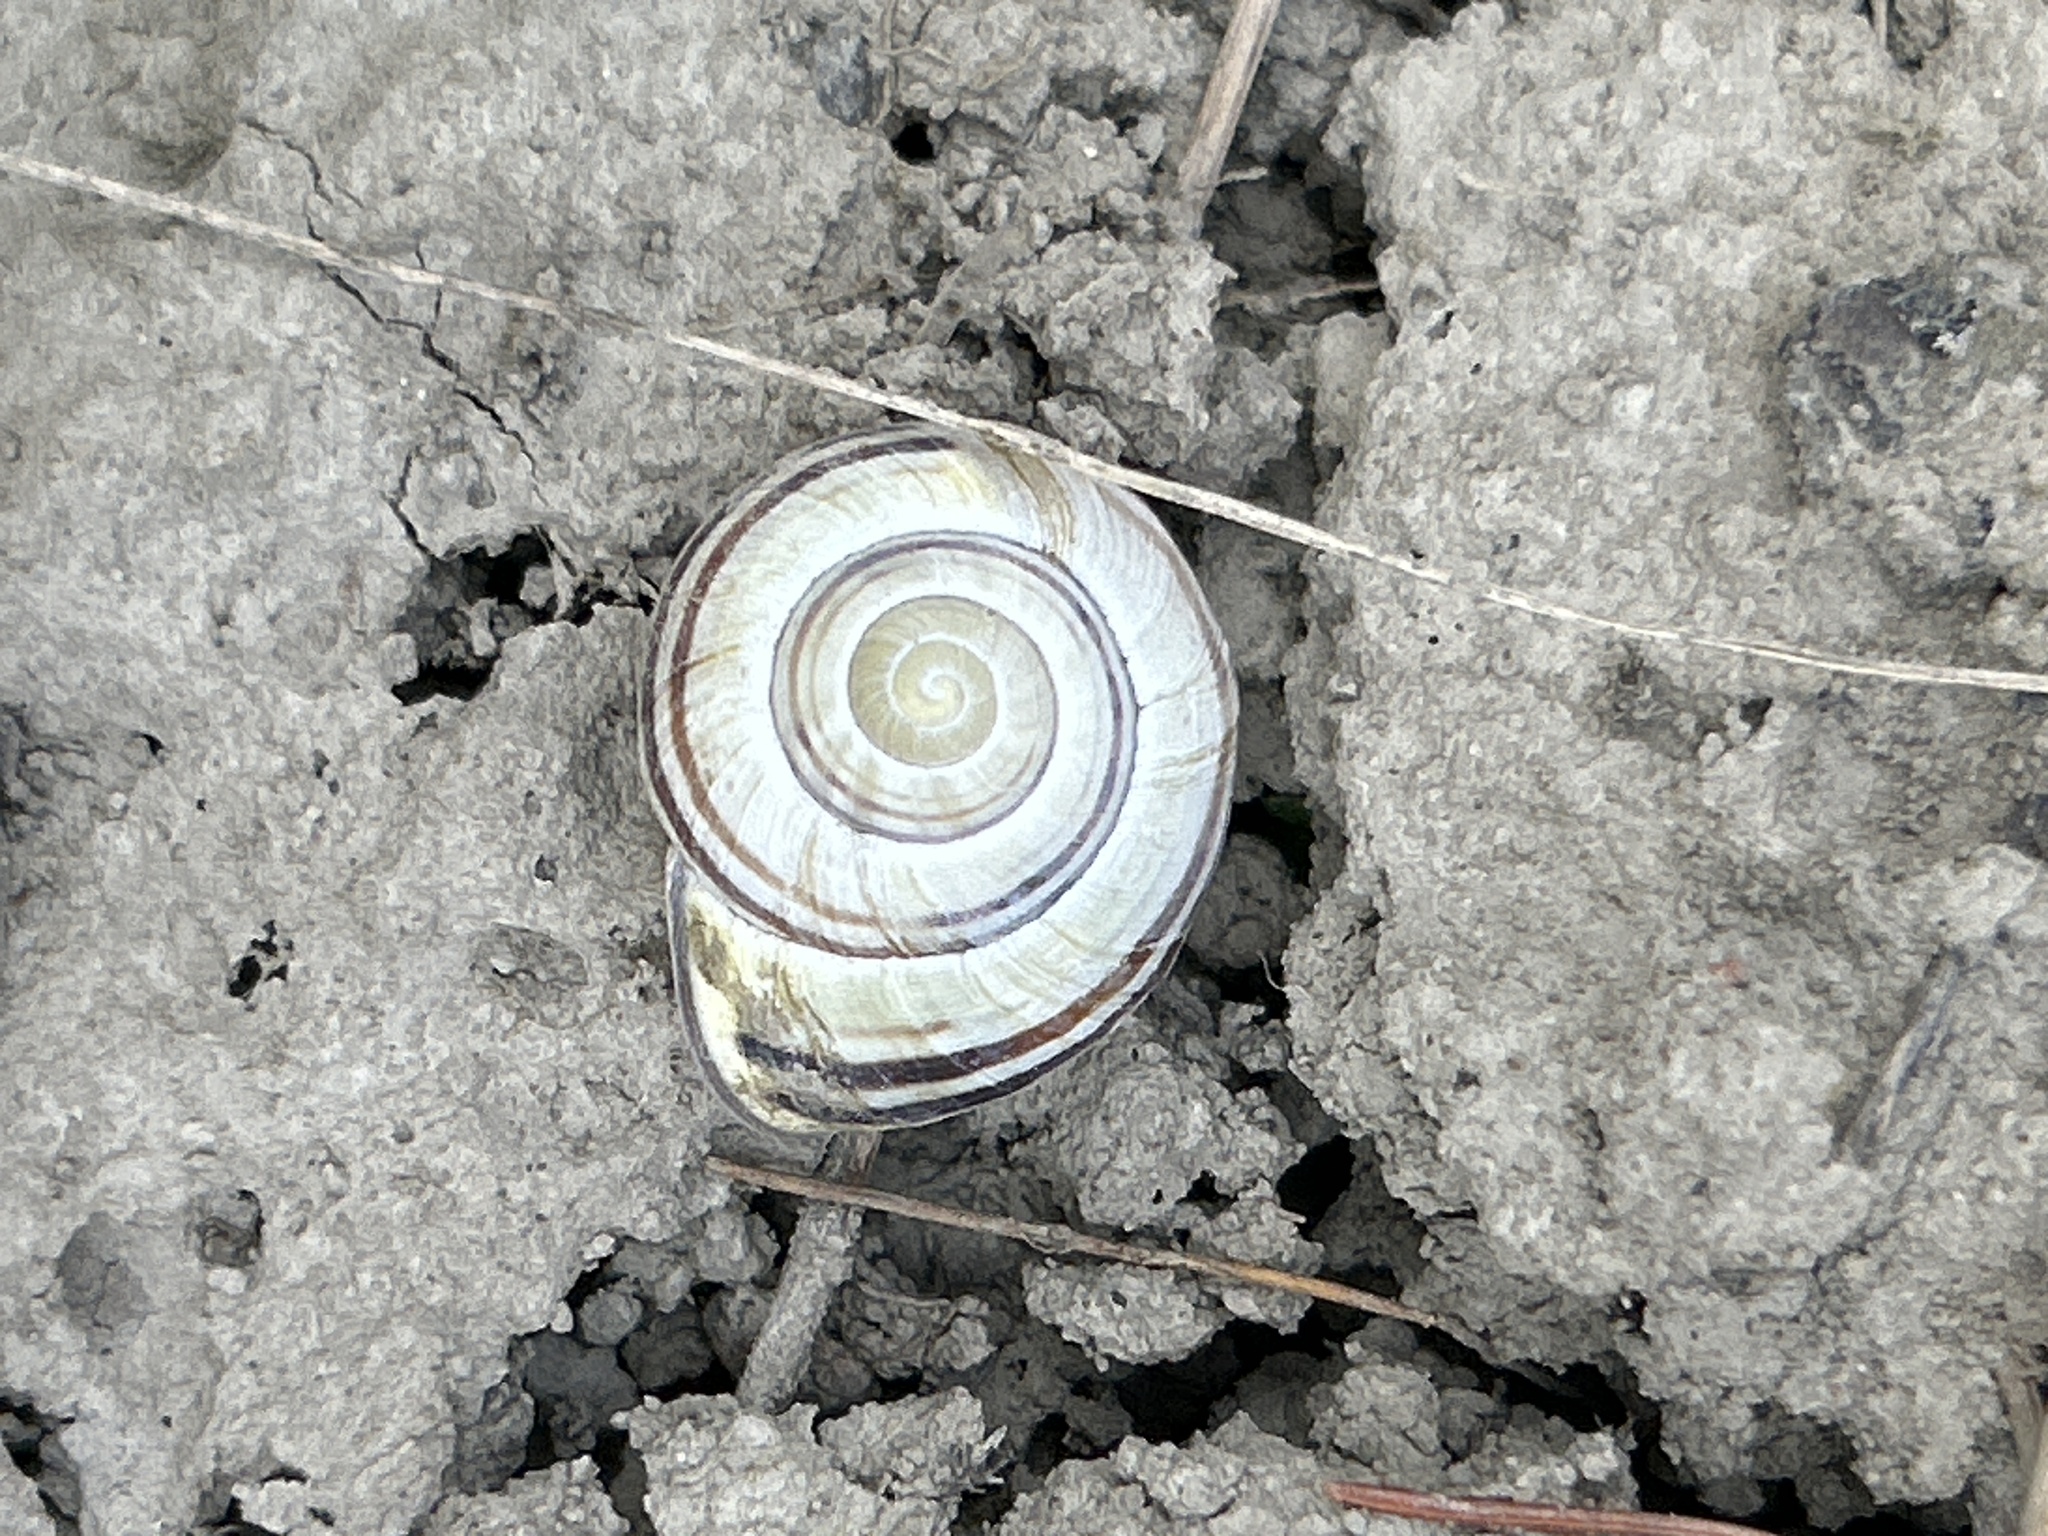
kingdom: Animalia
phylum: Mollusca
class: Gastropoda
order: Stylommatophora
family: Helicidae
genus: Cepaea
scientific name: Cepaea nemoralis
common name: Grovesnail
